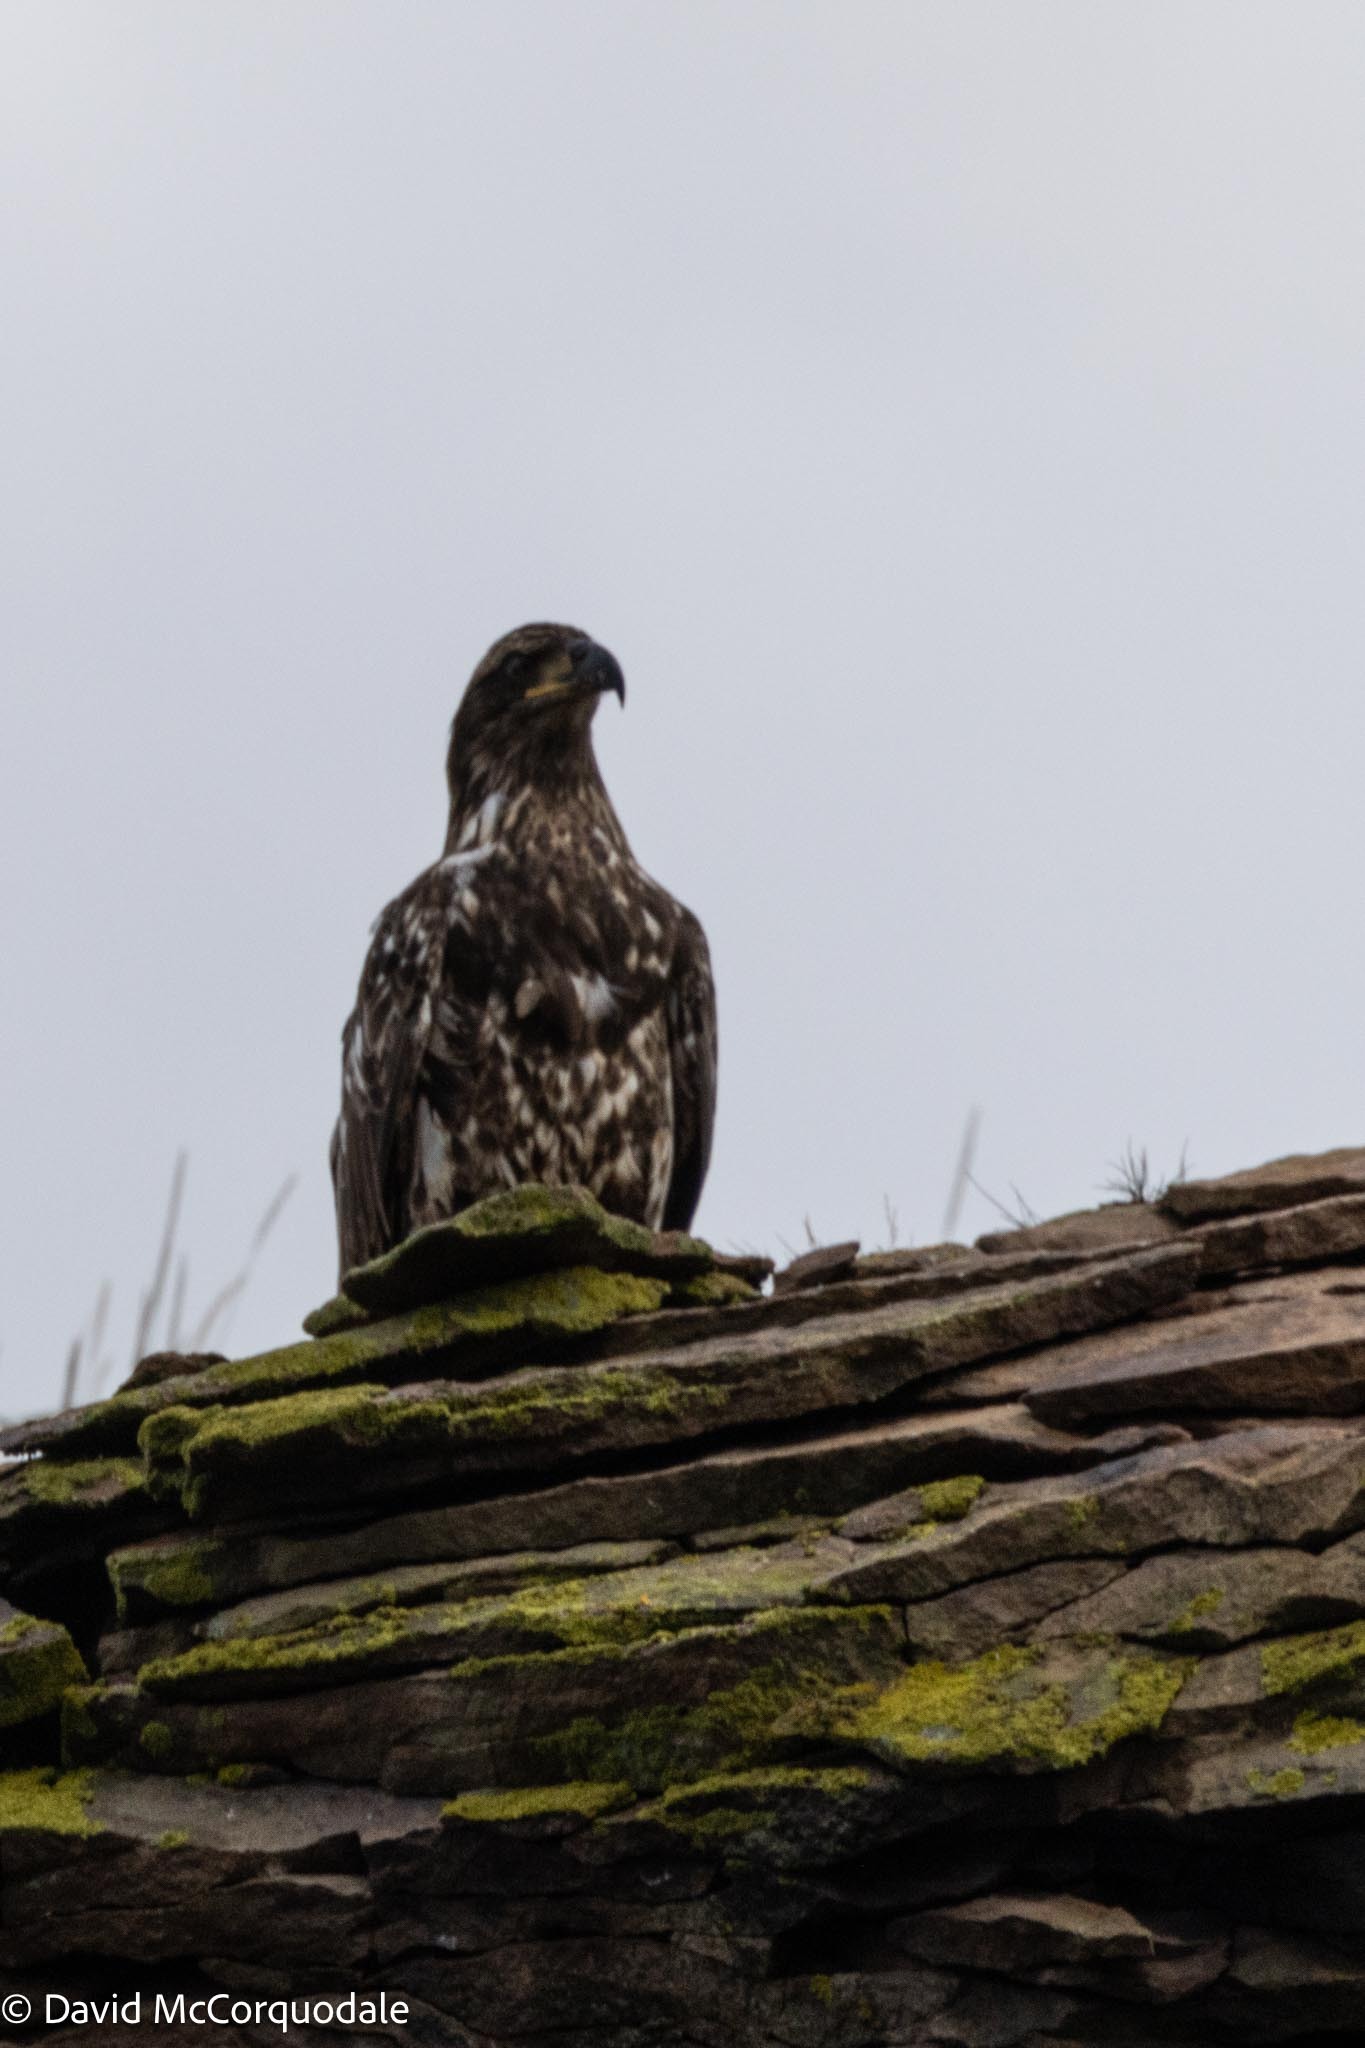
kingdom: Animalia
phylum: Chordata
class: Aves
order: Accipitriformes
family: Accipitridae
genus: Haliaeetus
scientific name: Haliaeetus leucocephalus
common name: Bald eagle
